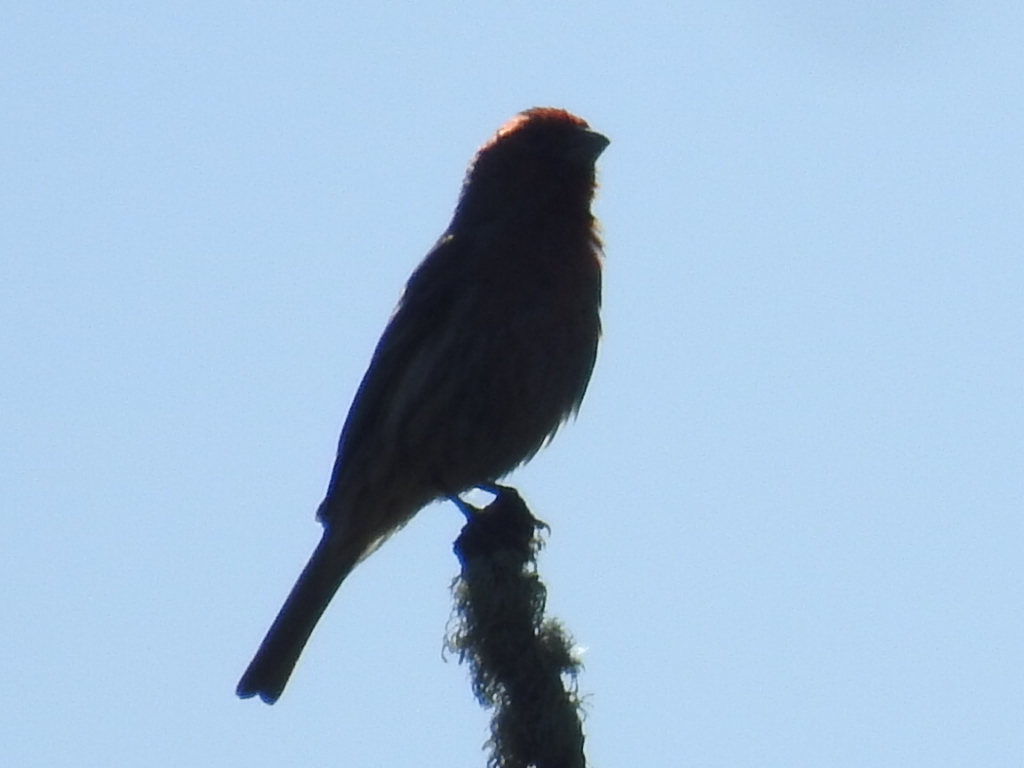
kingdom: Animalia
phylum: Chordata
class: Aves
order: Passeriformes
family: Fringillidae
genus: Haemorhous
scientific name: Haemorhous mexicanus
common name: House finch
